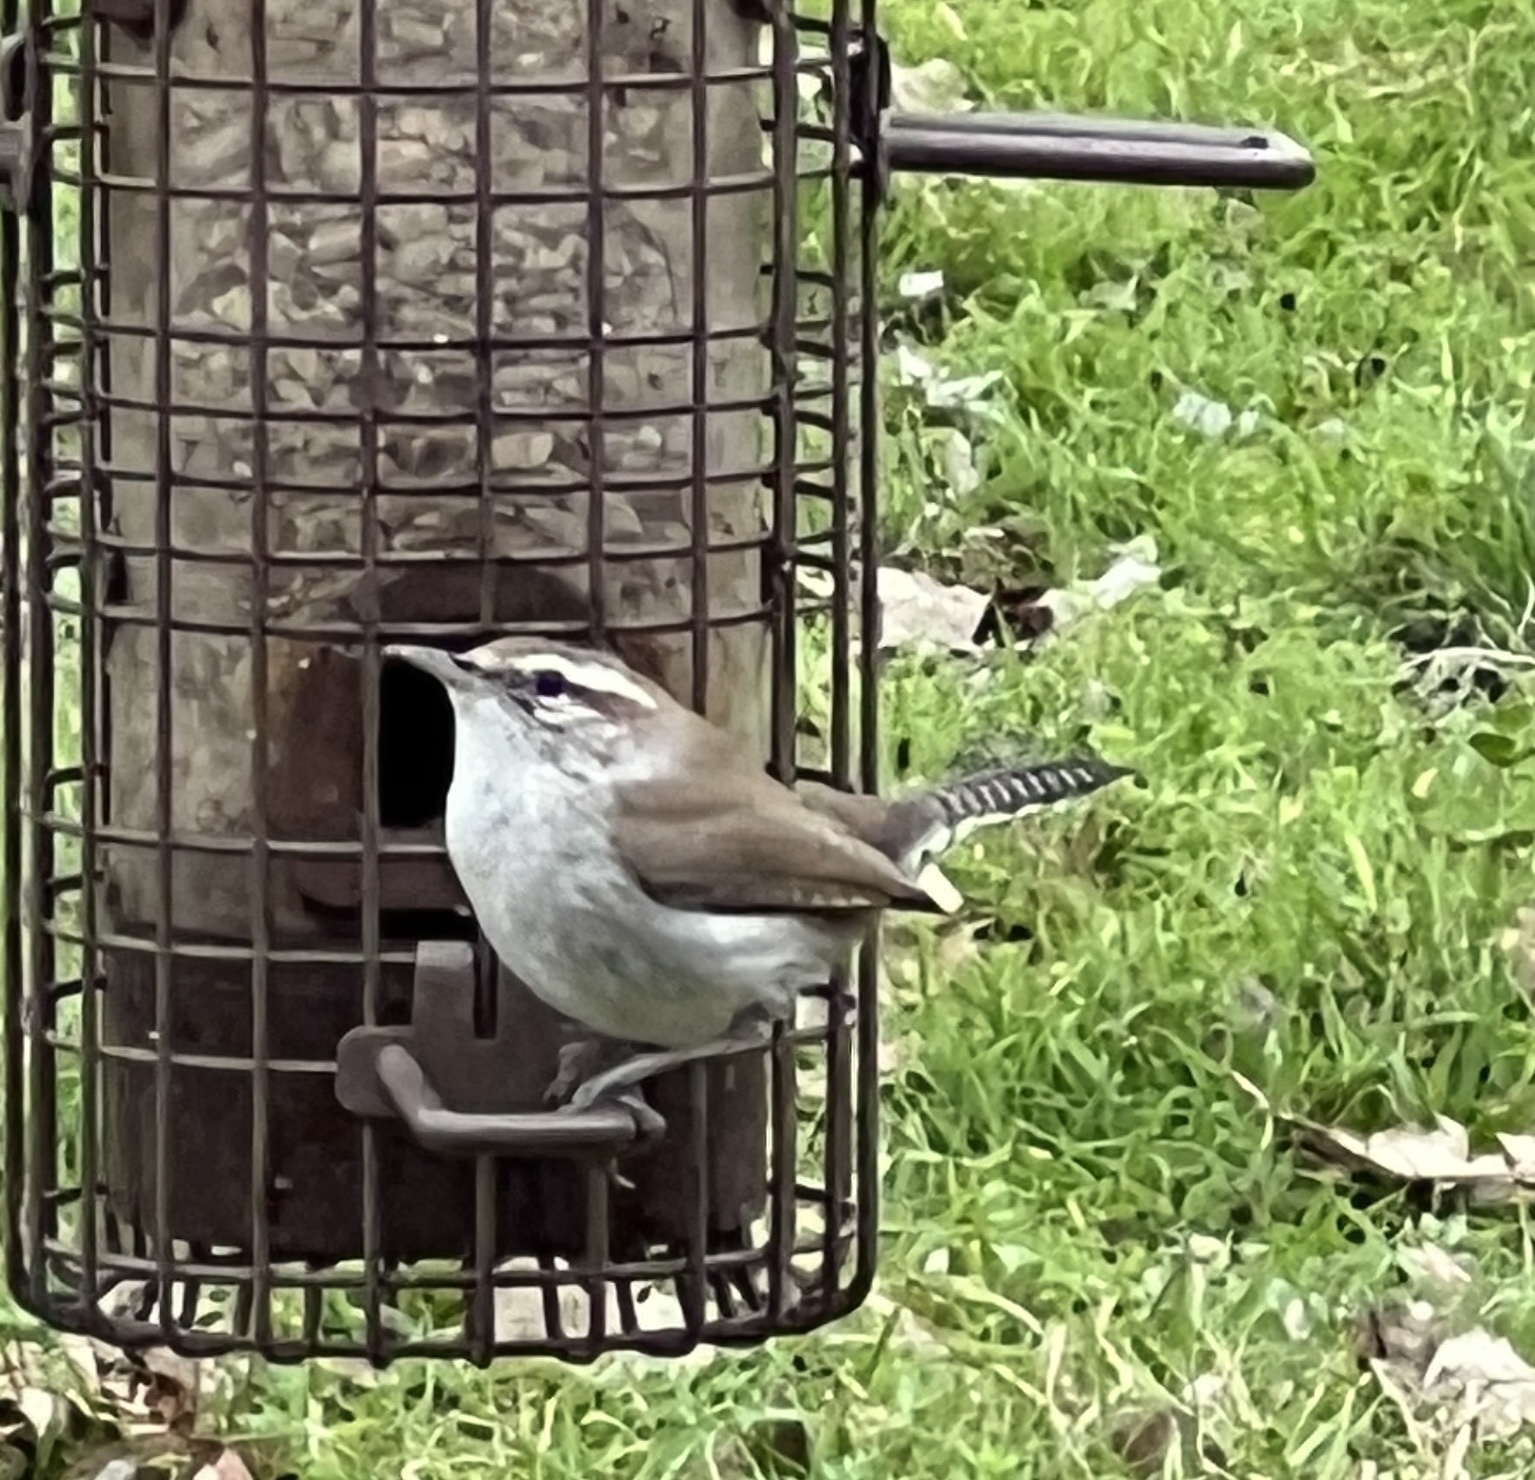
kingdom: Animalia
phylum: Chordata
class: Aves
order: Passeriformes
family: Troglodytidae
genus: Thryomanes
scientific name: Thryomanes bewickii
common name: Bewick's wren
